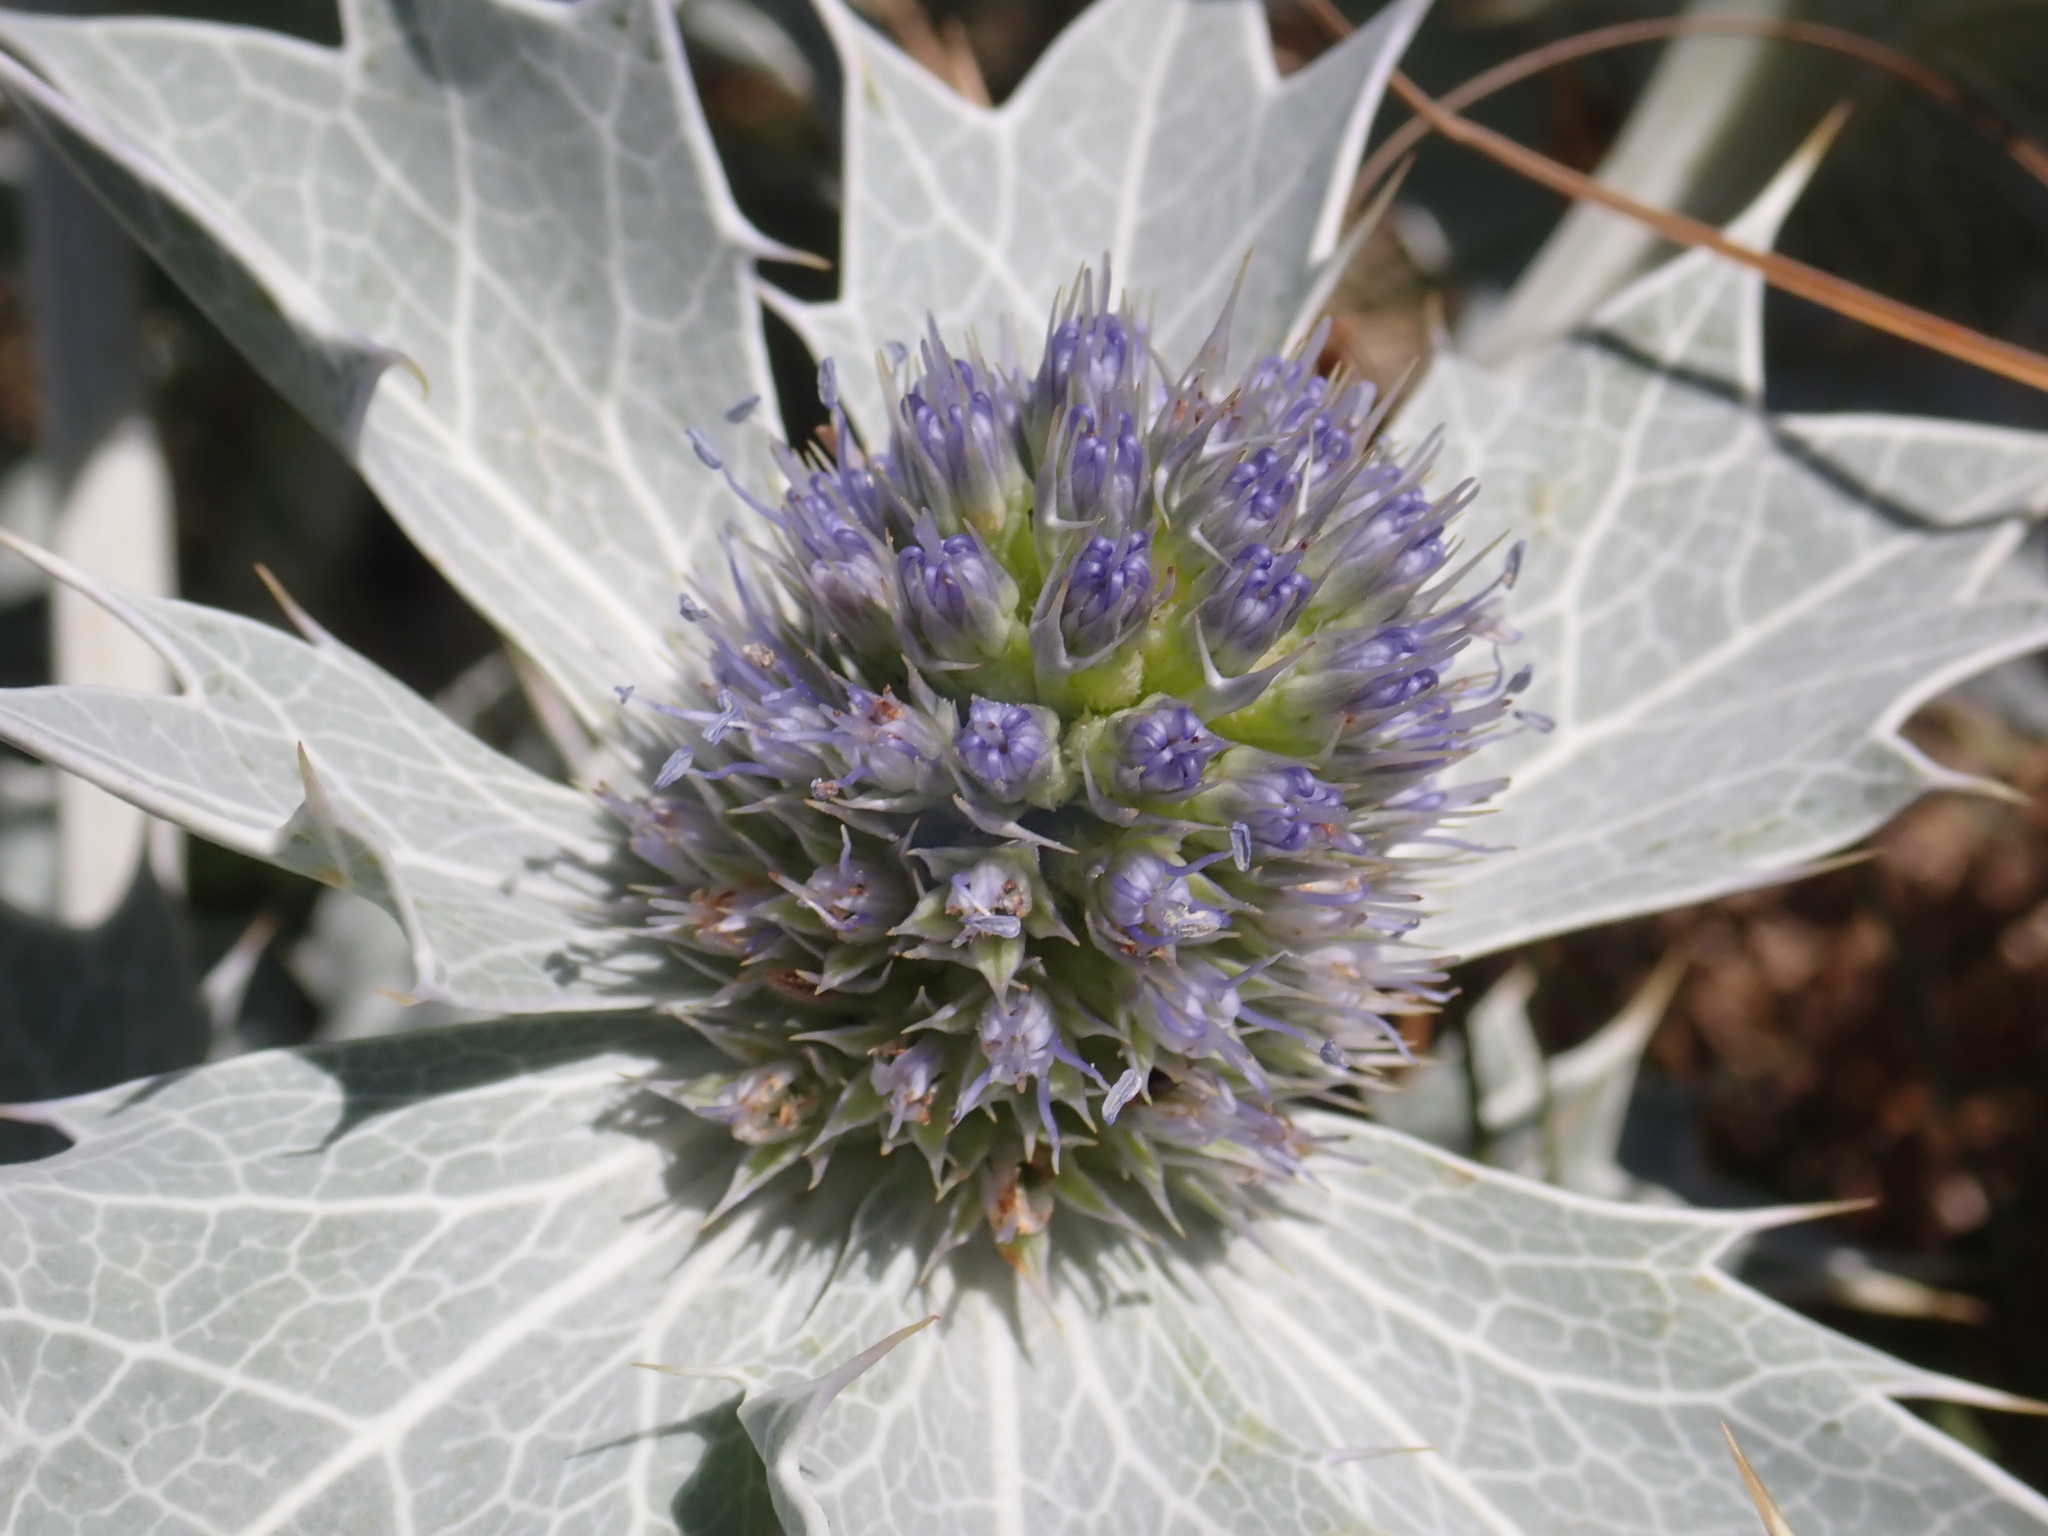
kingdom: Plantae
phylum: Tracheophyta
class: Magnoliopsida
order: Apiales
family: Apiaceae
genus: Eryngium
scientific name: Eryngium maritimum
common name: Sea-holly
